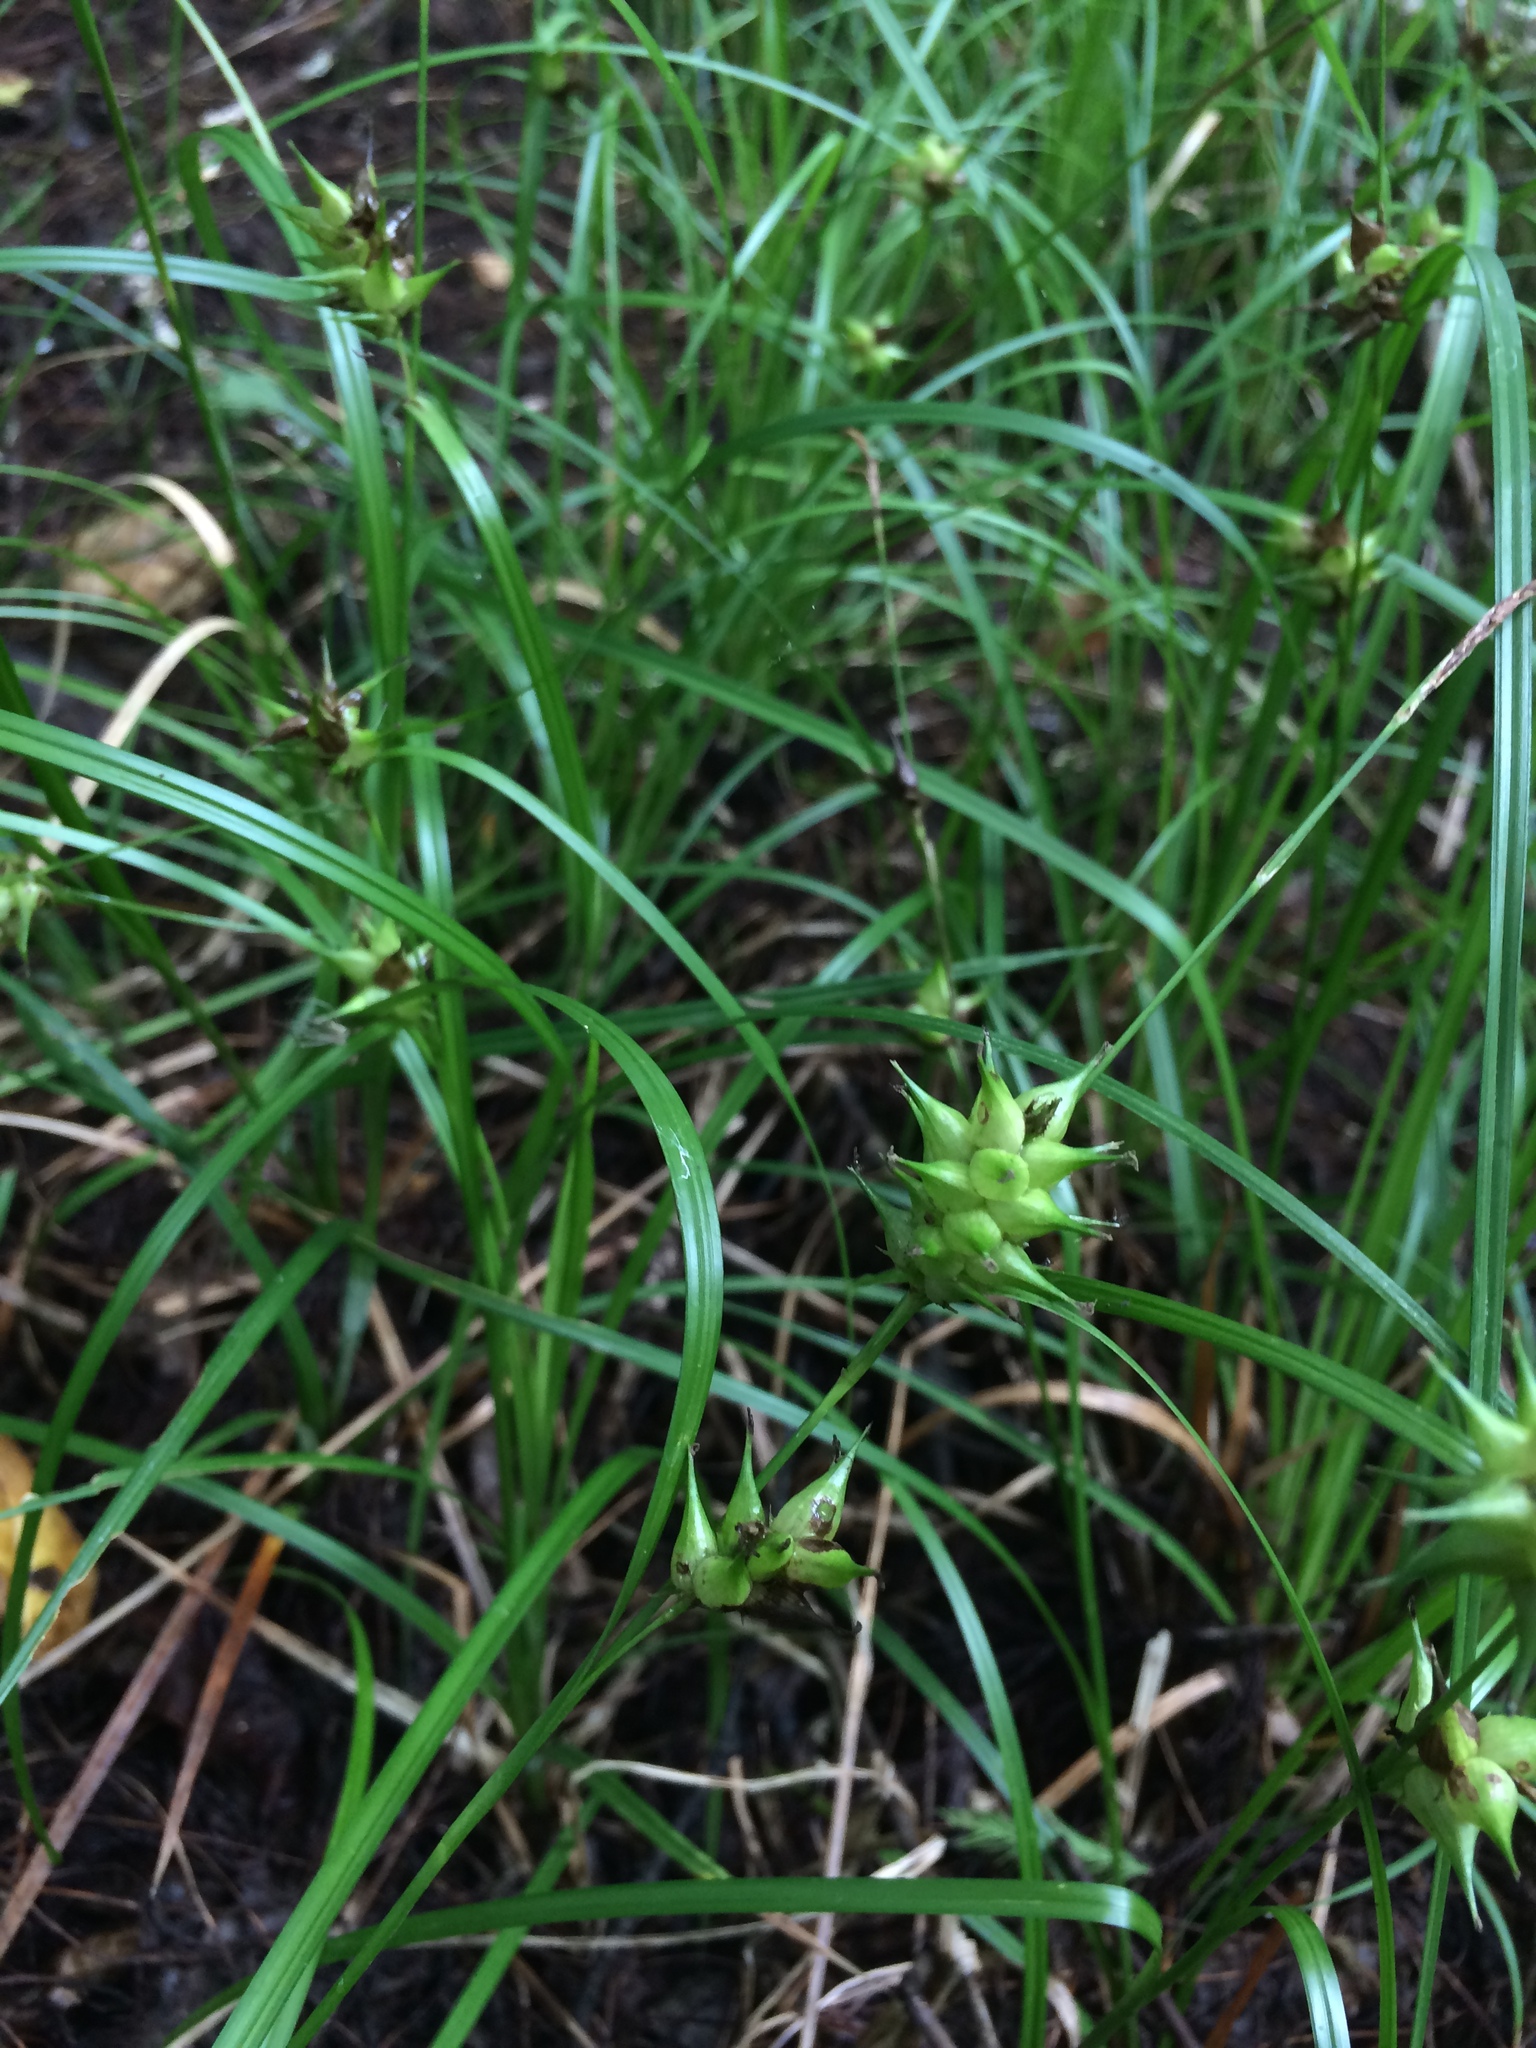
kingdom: Plantae
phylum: Tracheophyta
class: Liliopsida
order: Poales
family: Cyperaceae
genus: Carex
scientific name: Carex louisianica
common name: Louisiana sedge
